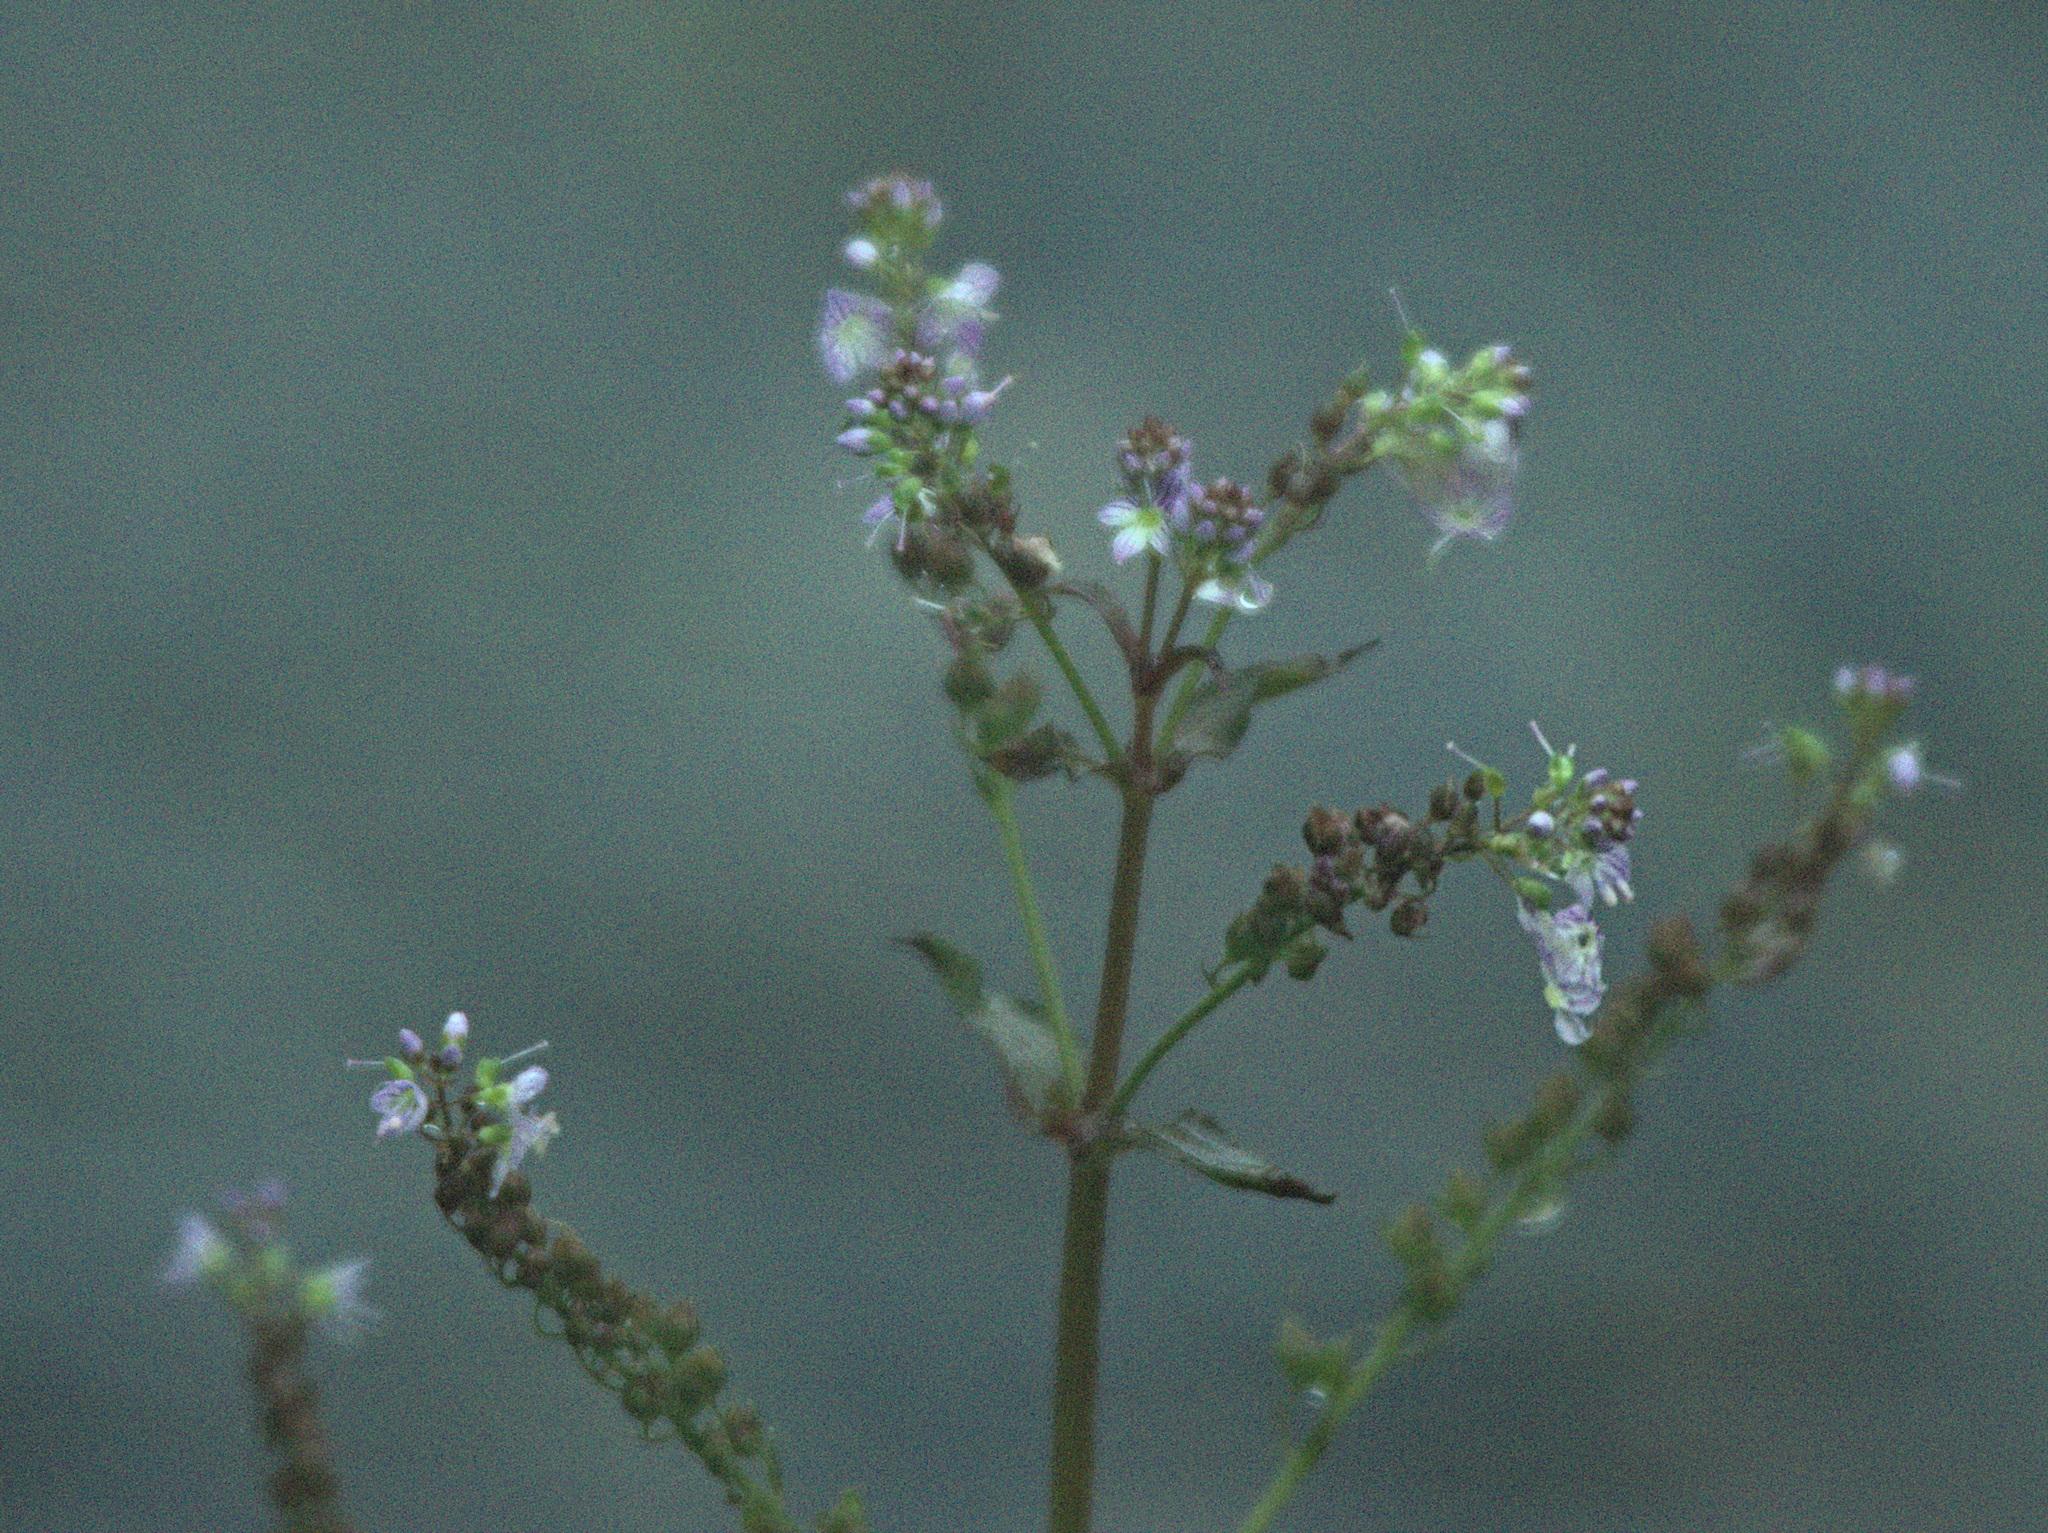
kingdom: Plantae
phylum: Tracheophyta
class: Magnoliopsida
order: Lamiales
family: Plantaginaceae
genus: Veronica
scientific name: Veronica anagallis-aquatica
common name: Water speedwell
